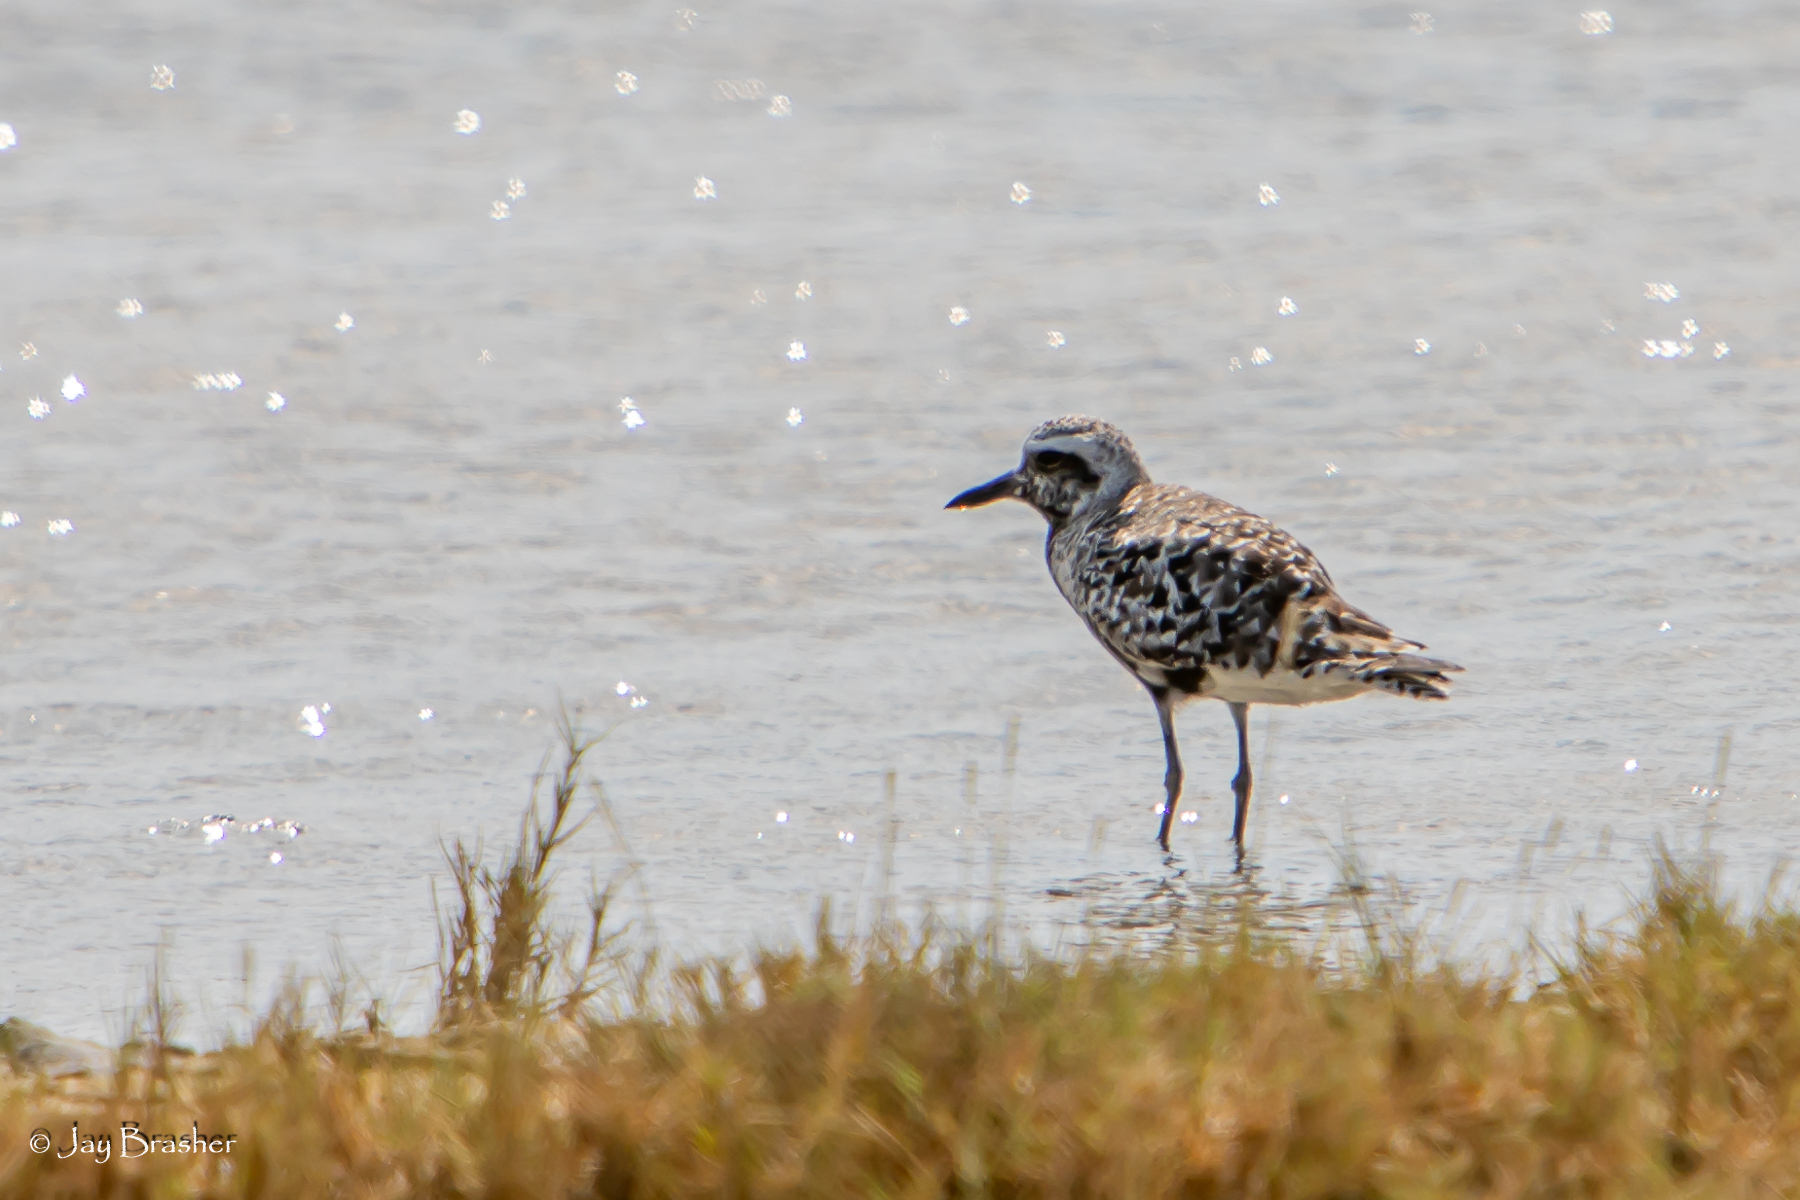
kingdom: Animalia
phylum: Chordata
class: Aves
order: Charadriiformes
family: Charadriidae
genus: Pluvialis
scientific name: Pluvialis squatarola
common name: Grey plover
